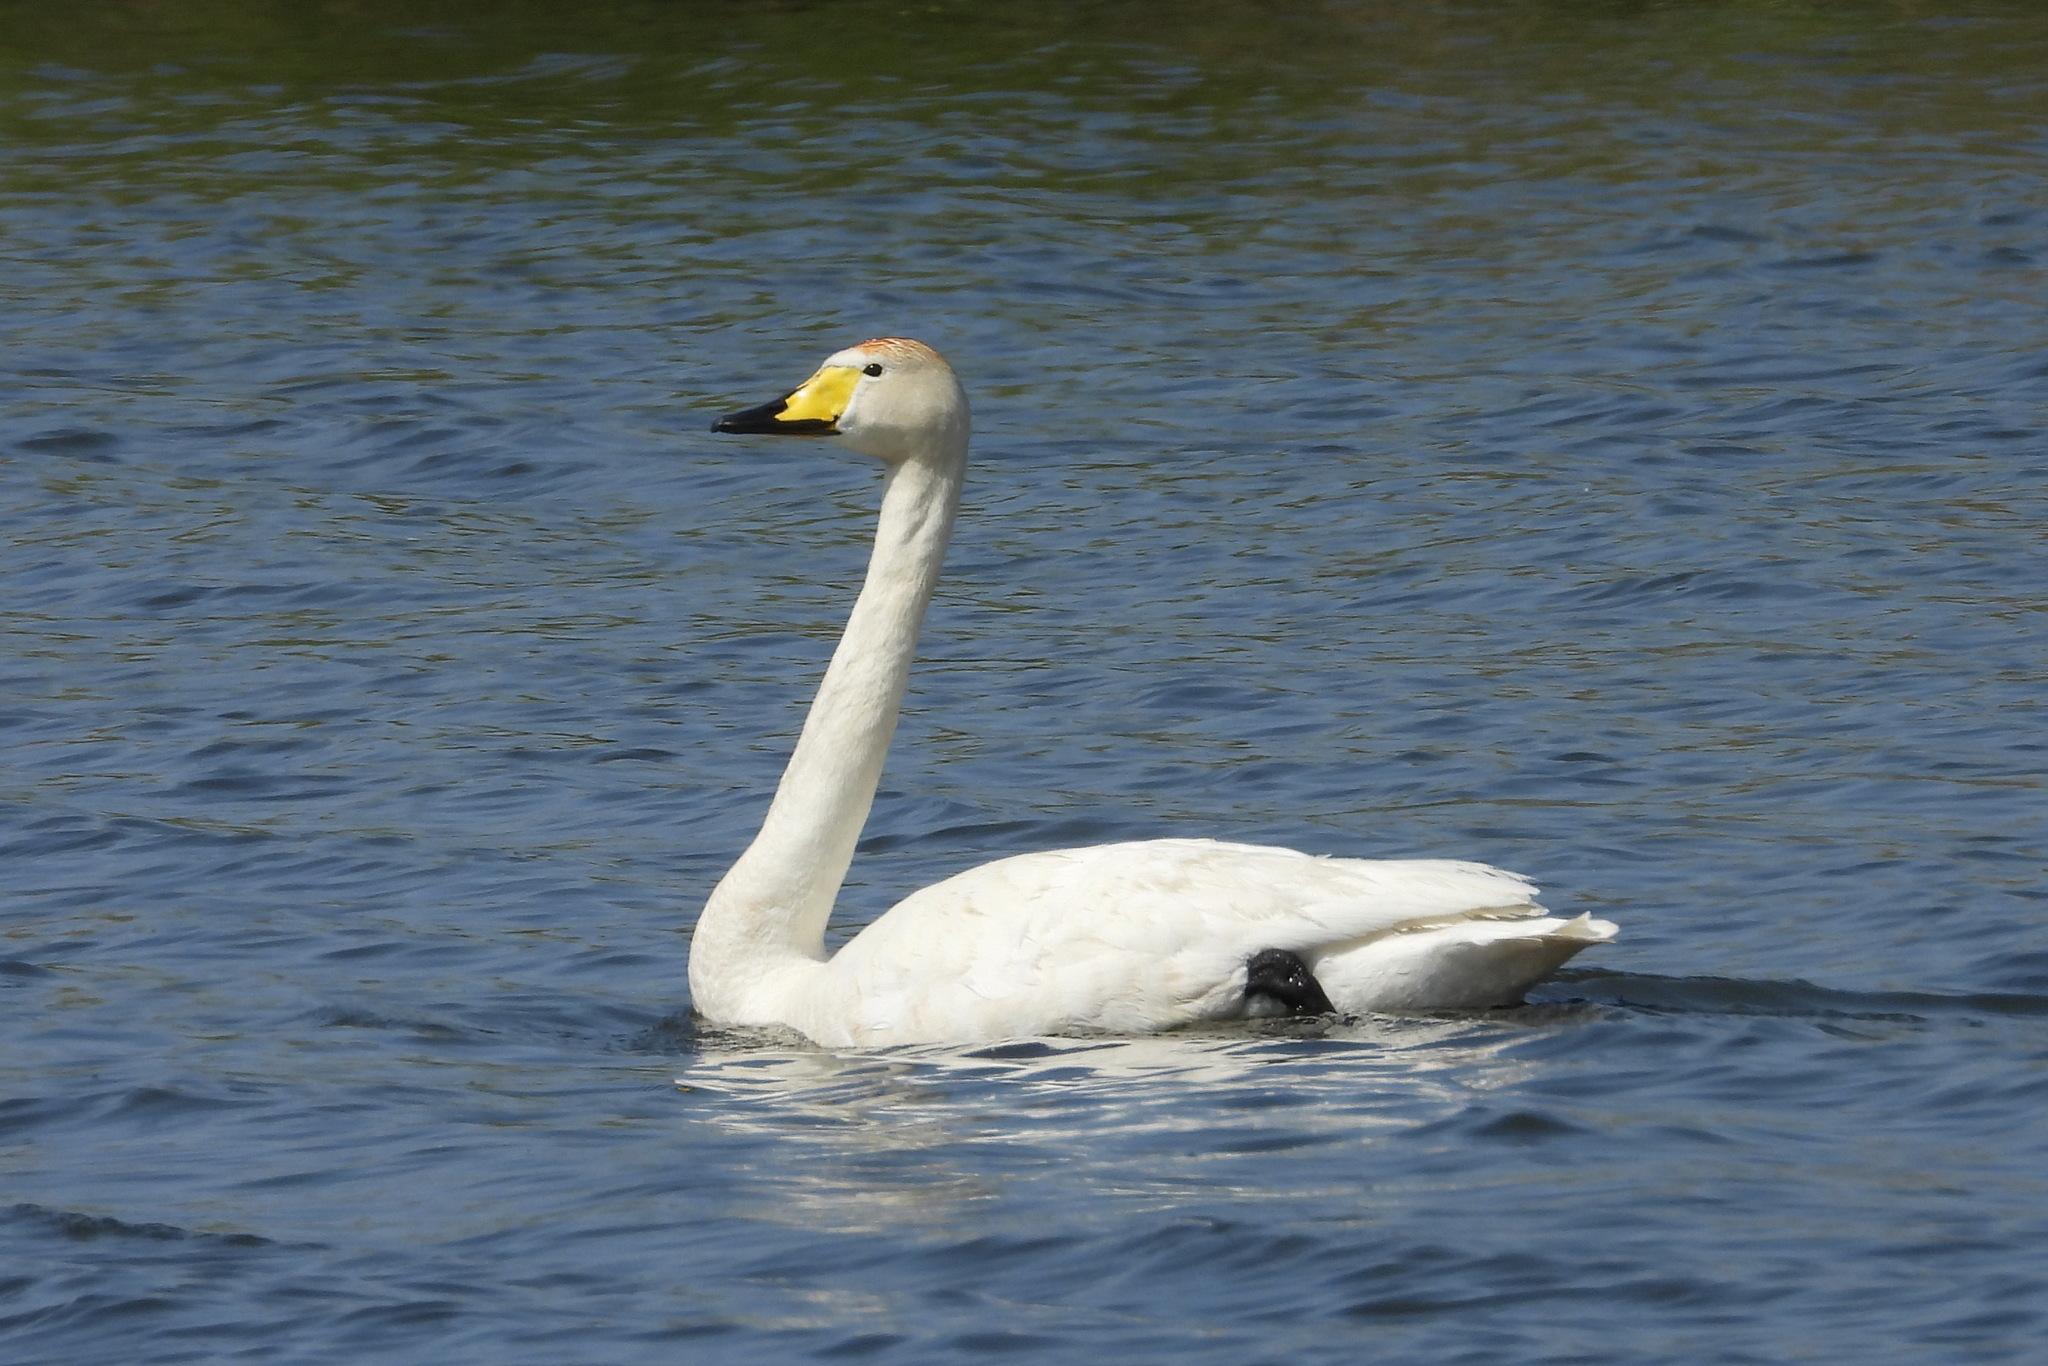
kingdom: Animalia
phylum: Chordata
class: Aves
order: Anseriformes
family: Anatidae
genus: Cygnus
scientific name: Cygnus cygnus
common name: Whooper swan
